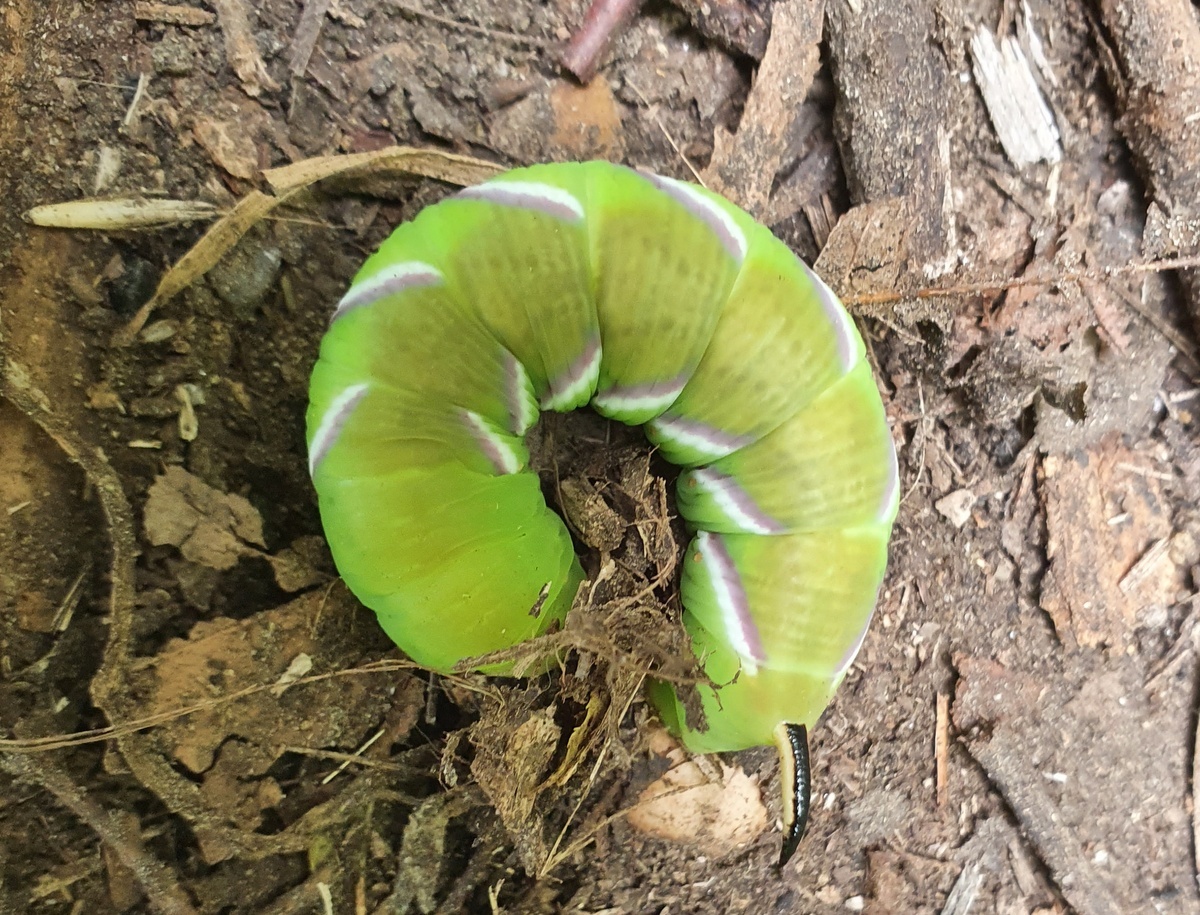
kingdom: Animalia
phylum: Arthropoda
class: Insecta
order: Lepidoptera
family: Sphingidae
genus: Sphinx
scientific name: Sphinx ligustri
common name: Privet hawk-moth
